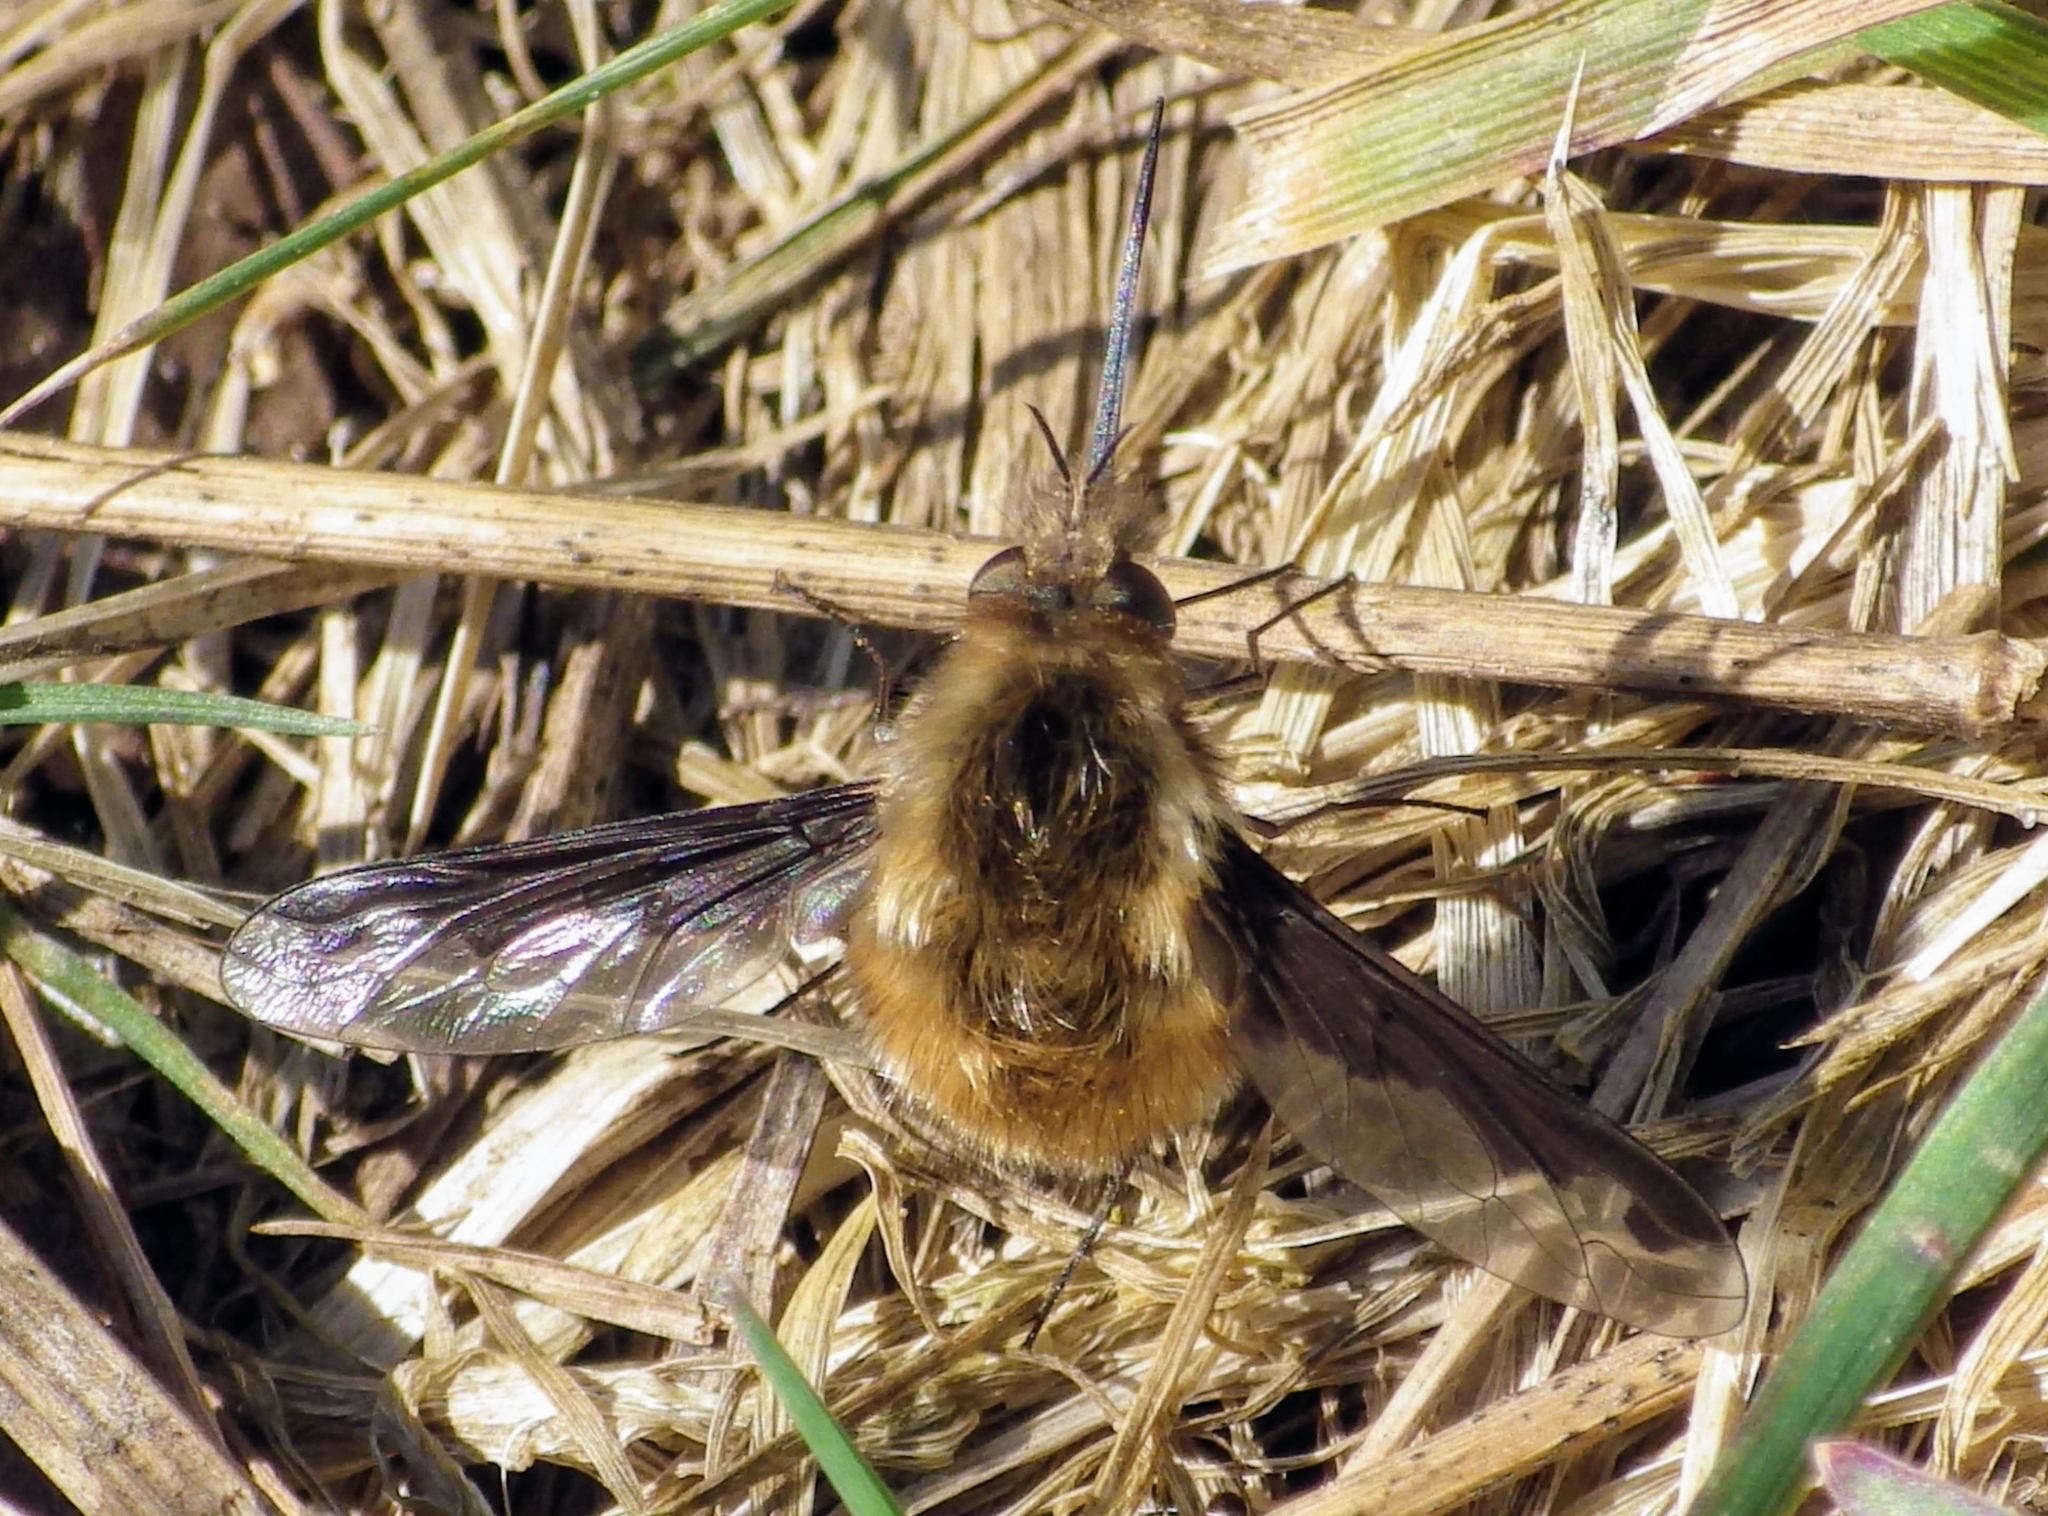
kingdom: Animalia
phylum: Arthropoda
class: Insecta
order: Diptera
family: Bombyliidae
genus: Bombylius
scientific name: Bombylius major
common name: Bee fly
